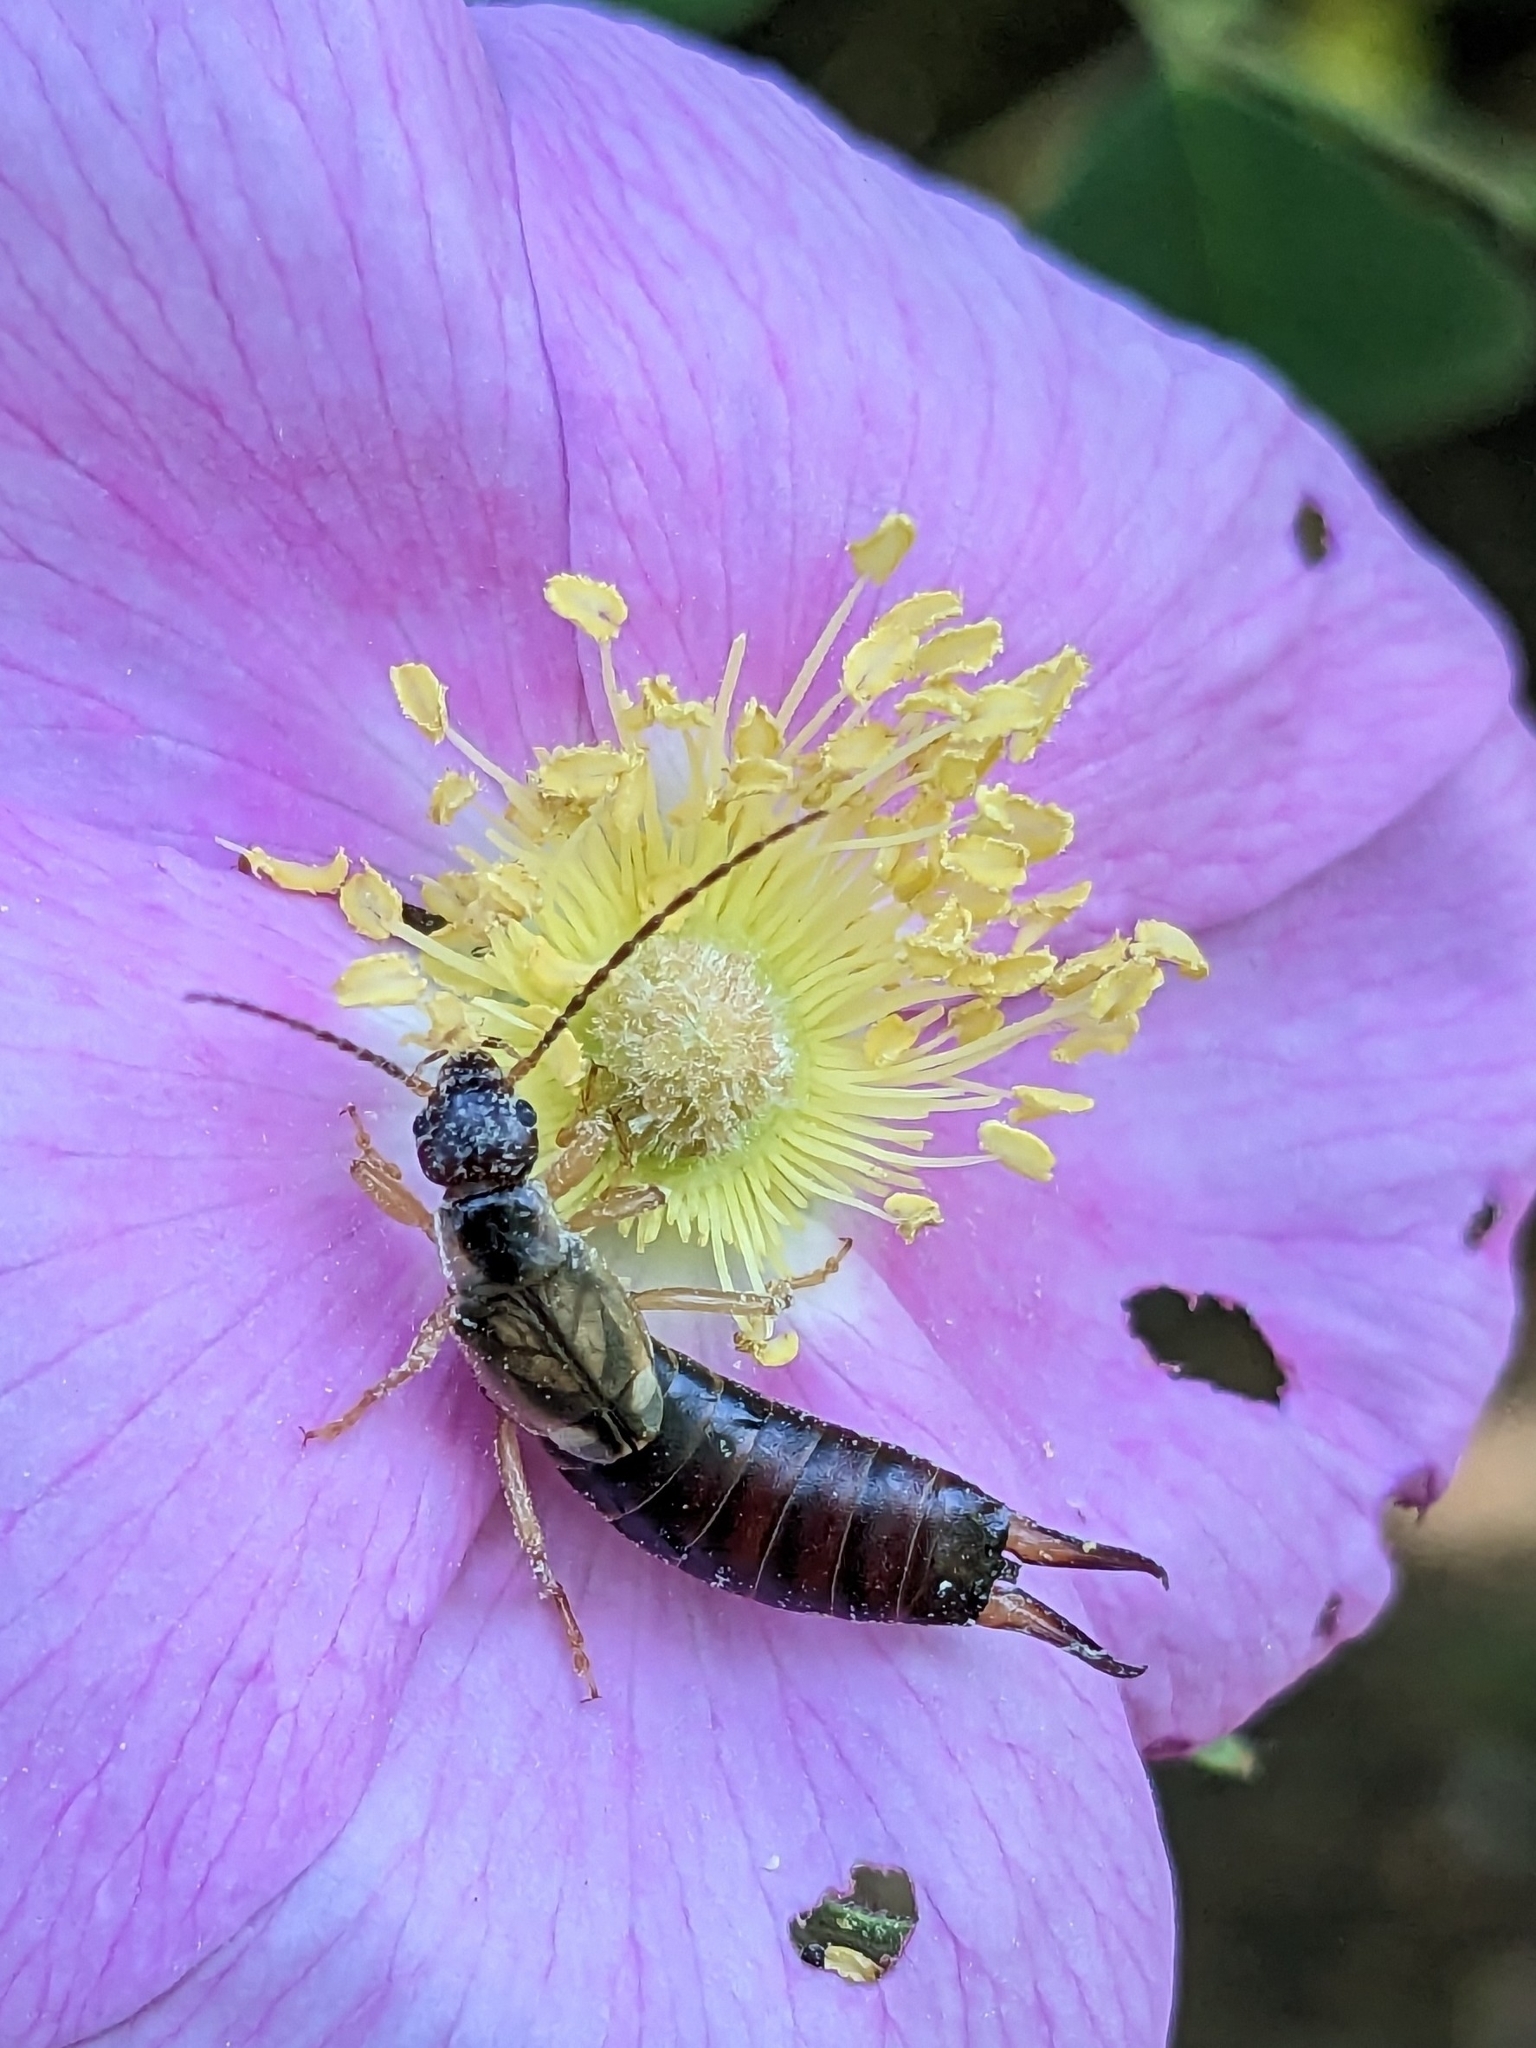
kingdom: Animalia
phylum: Arthropoda
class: Insecta
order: Dermaptera
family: Forficulidae
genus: Forficula
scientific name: Forficula
